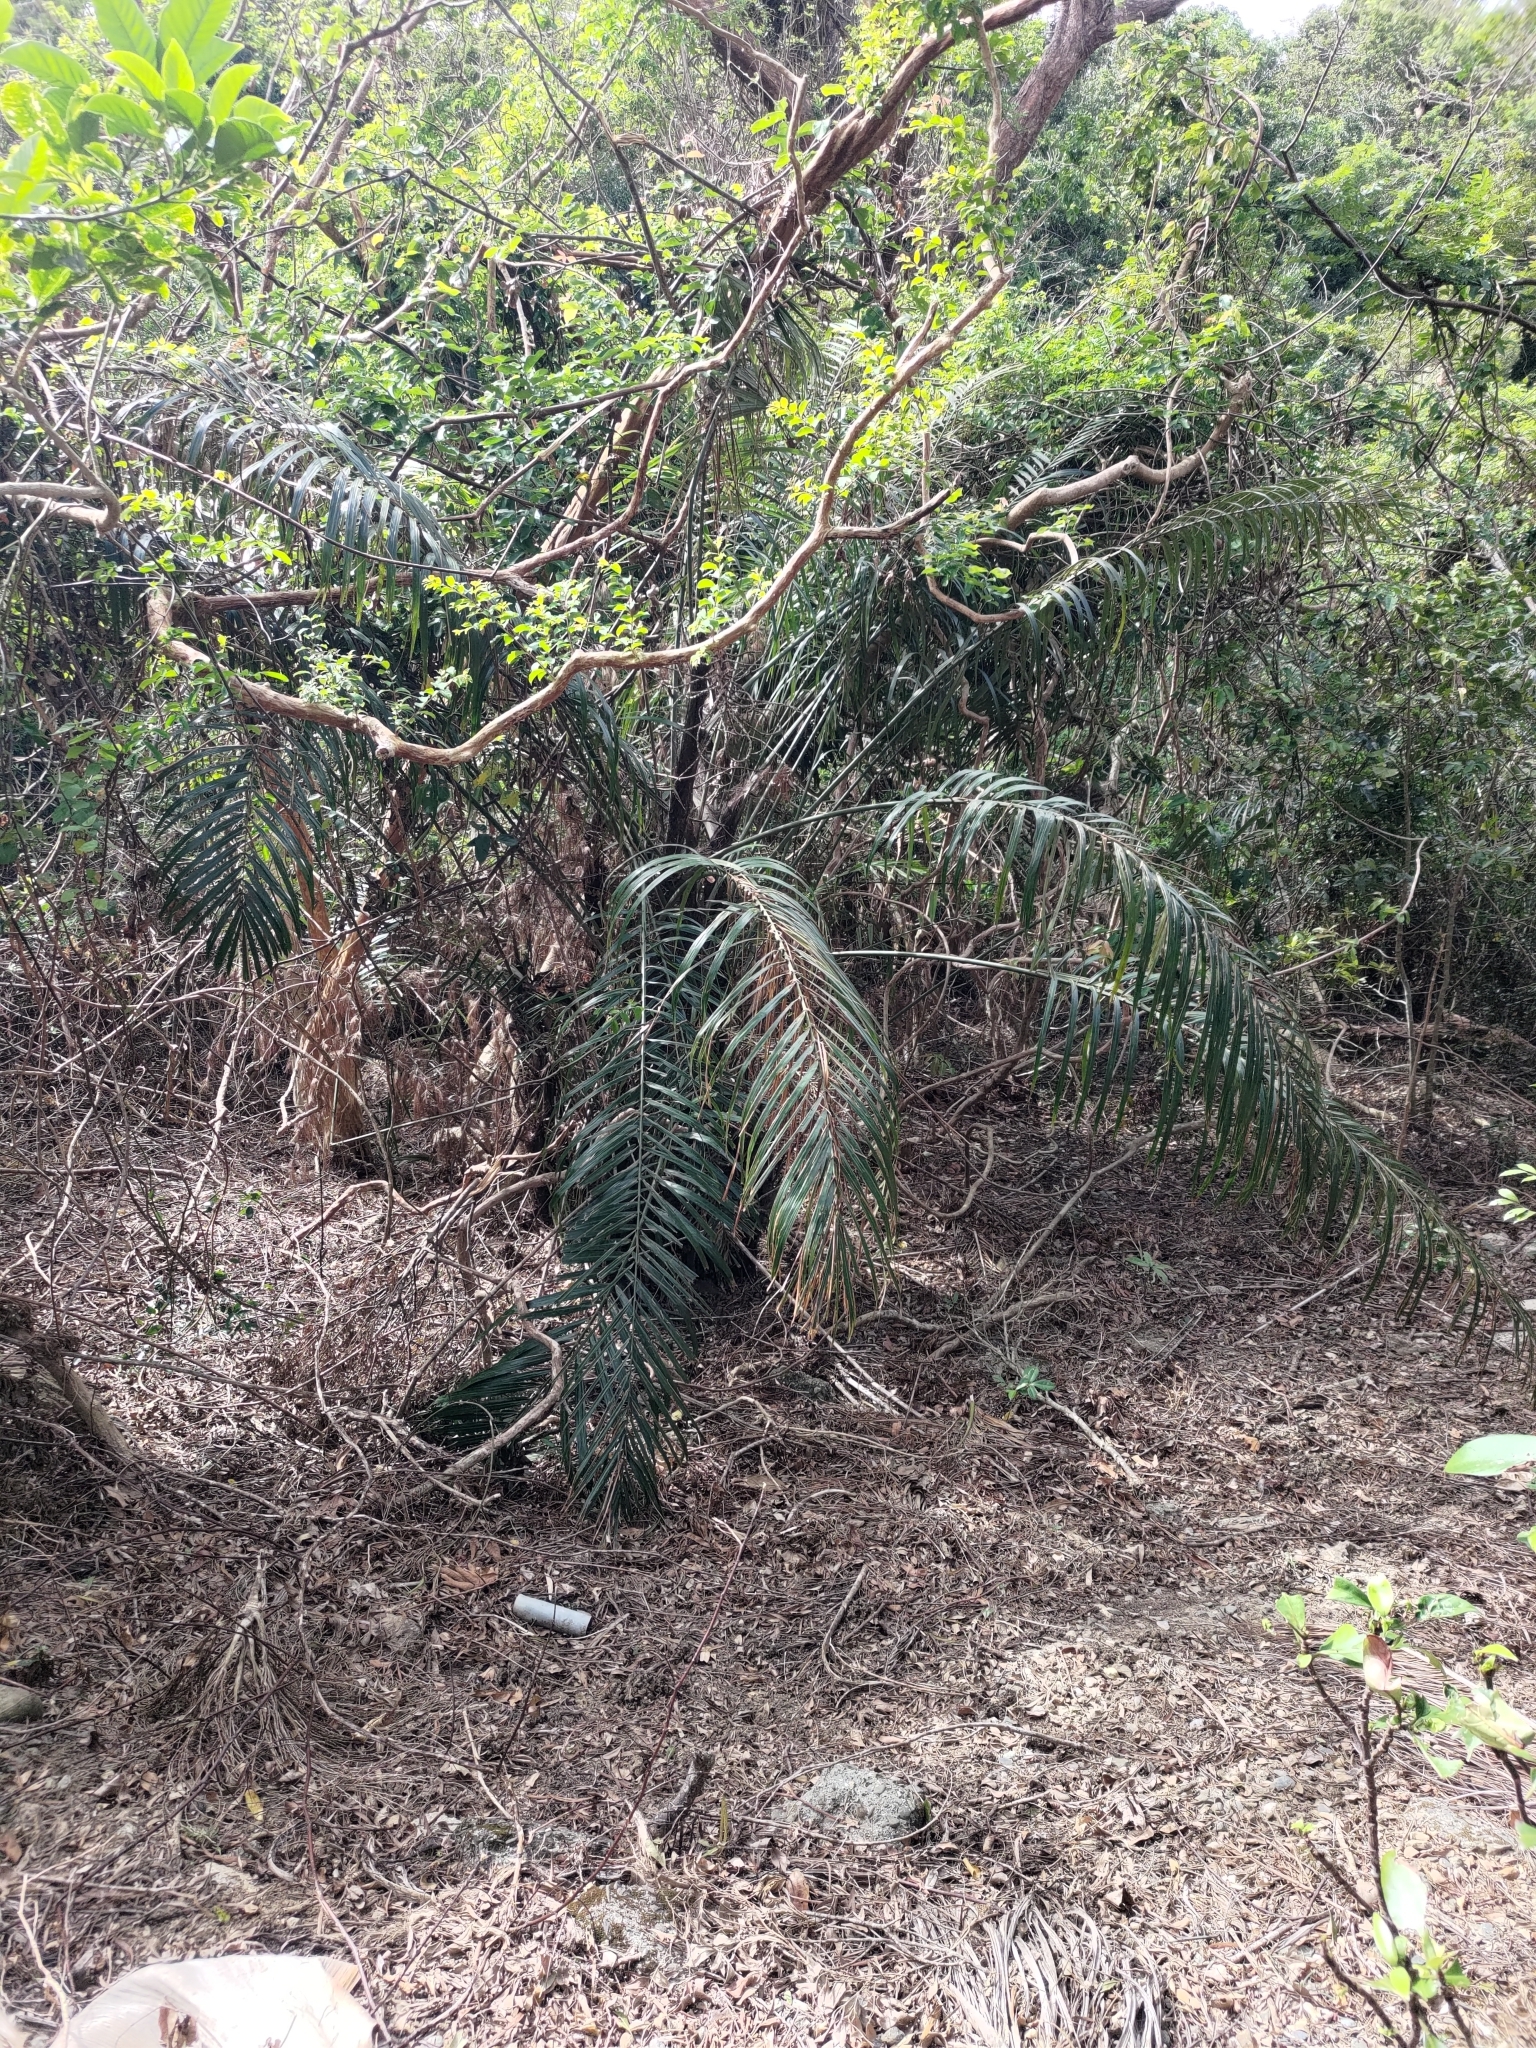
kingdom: Plantae
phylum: Tracheophyta
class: Liliopsida
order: Arecales
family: Arecaceae
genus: Arenga
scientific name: Arenga engleri
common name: Formosan sugar palm
